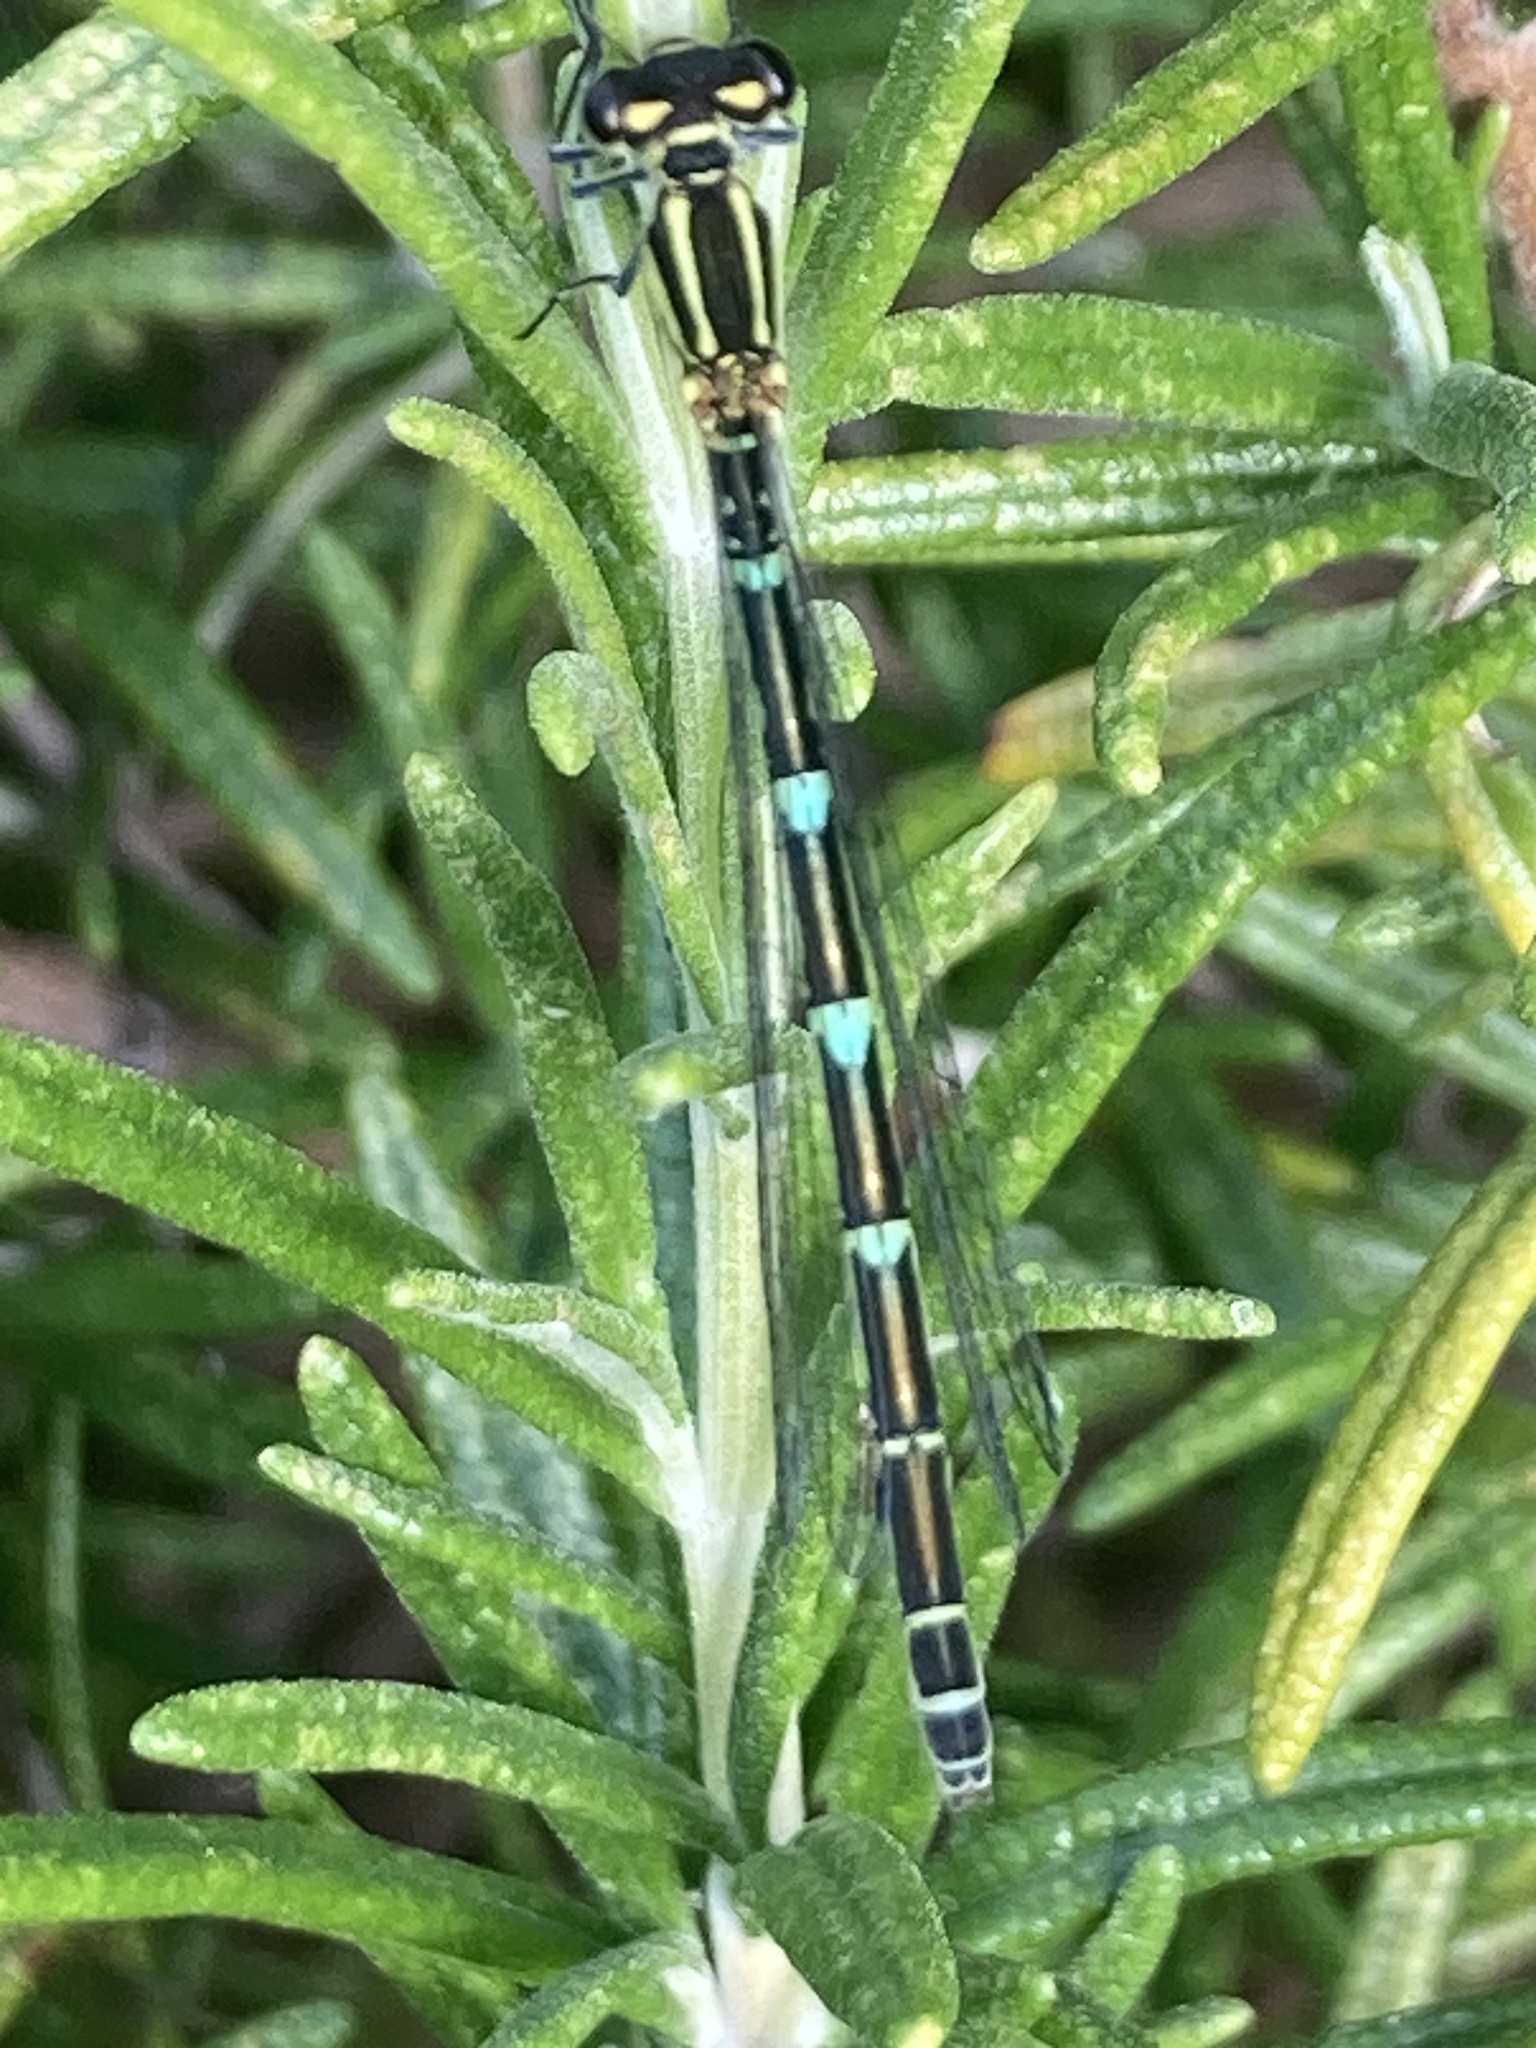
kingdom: Animalia
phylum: Arthropoda
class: Insecta
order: Odonata
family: Coenagrionidae
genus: Coenagrion
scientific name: Coenagrion puella
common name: Azure damselfly
